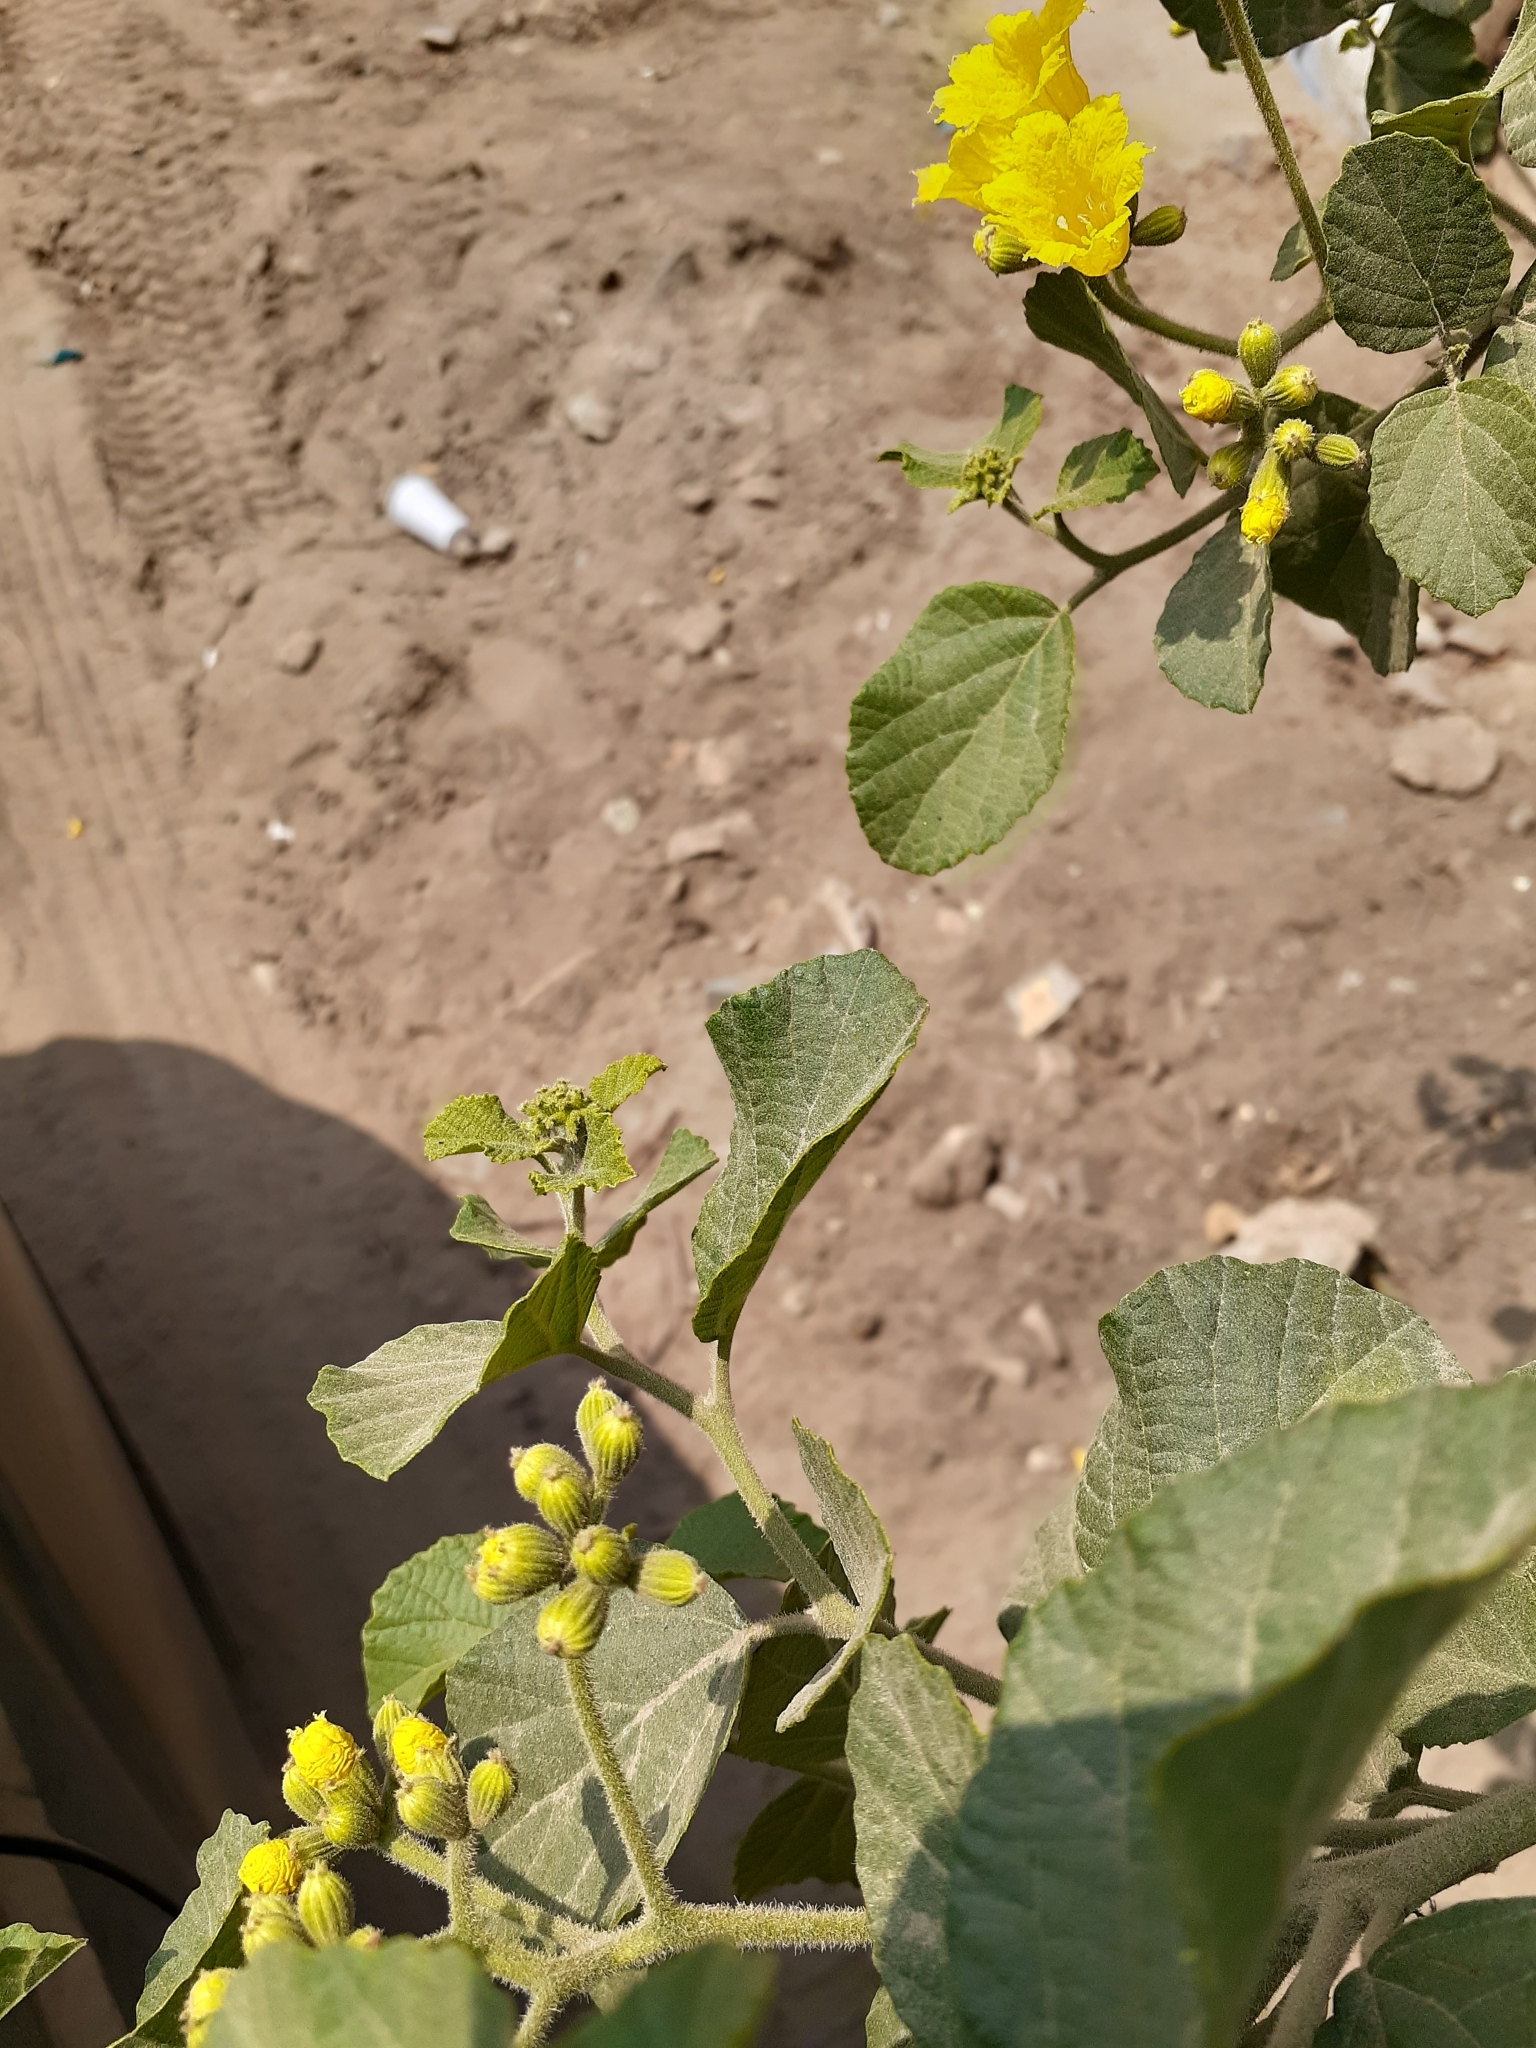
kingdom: Plantae
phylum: Tracheophyta
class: Magnoliopsida
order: Boraginales
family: Cordiaceae
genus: Cordia
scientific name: Cordia lutea
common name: Yellow geiger
